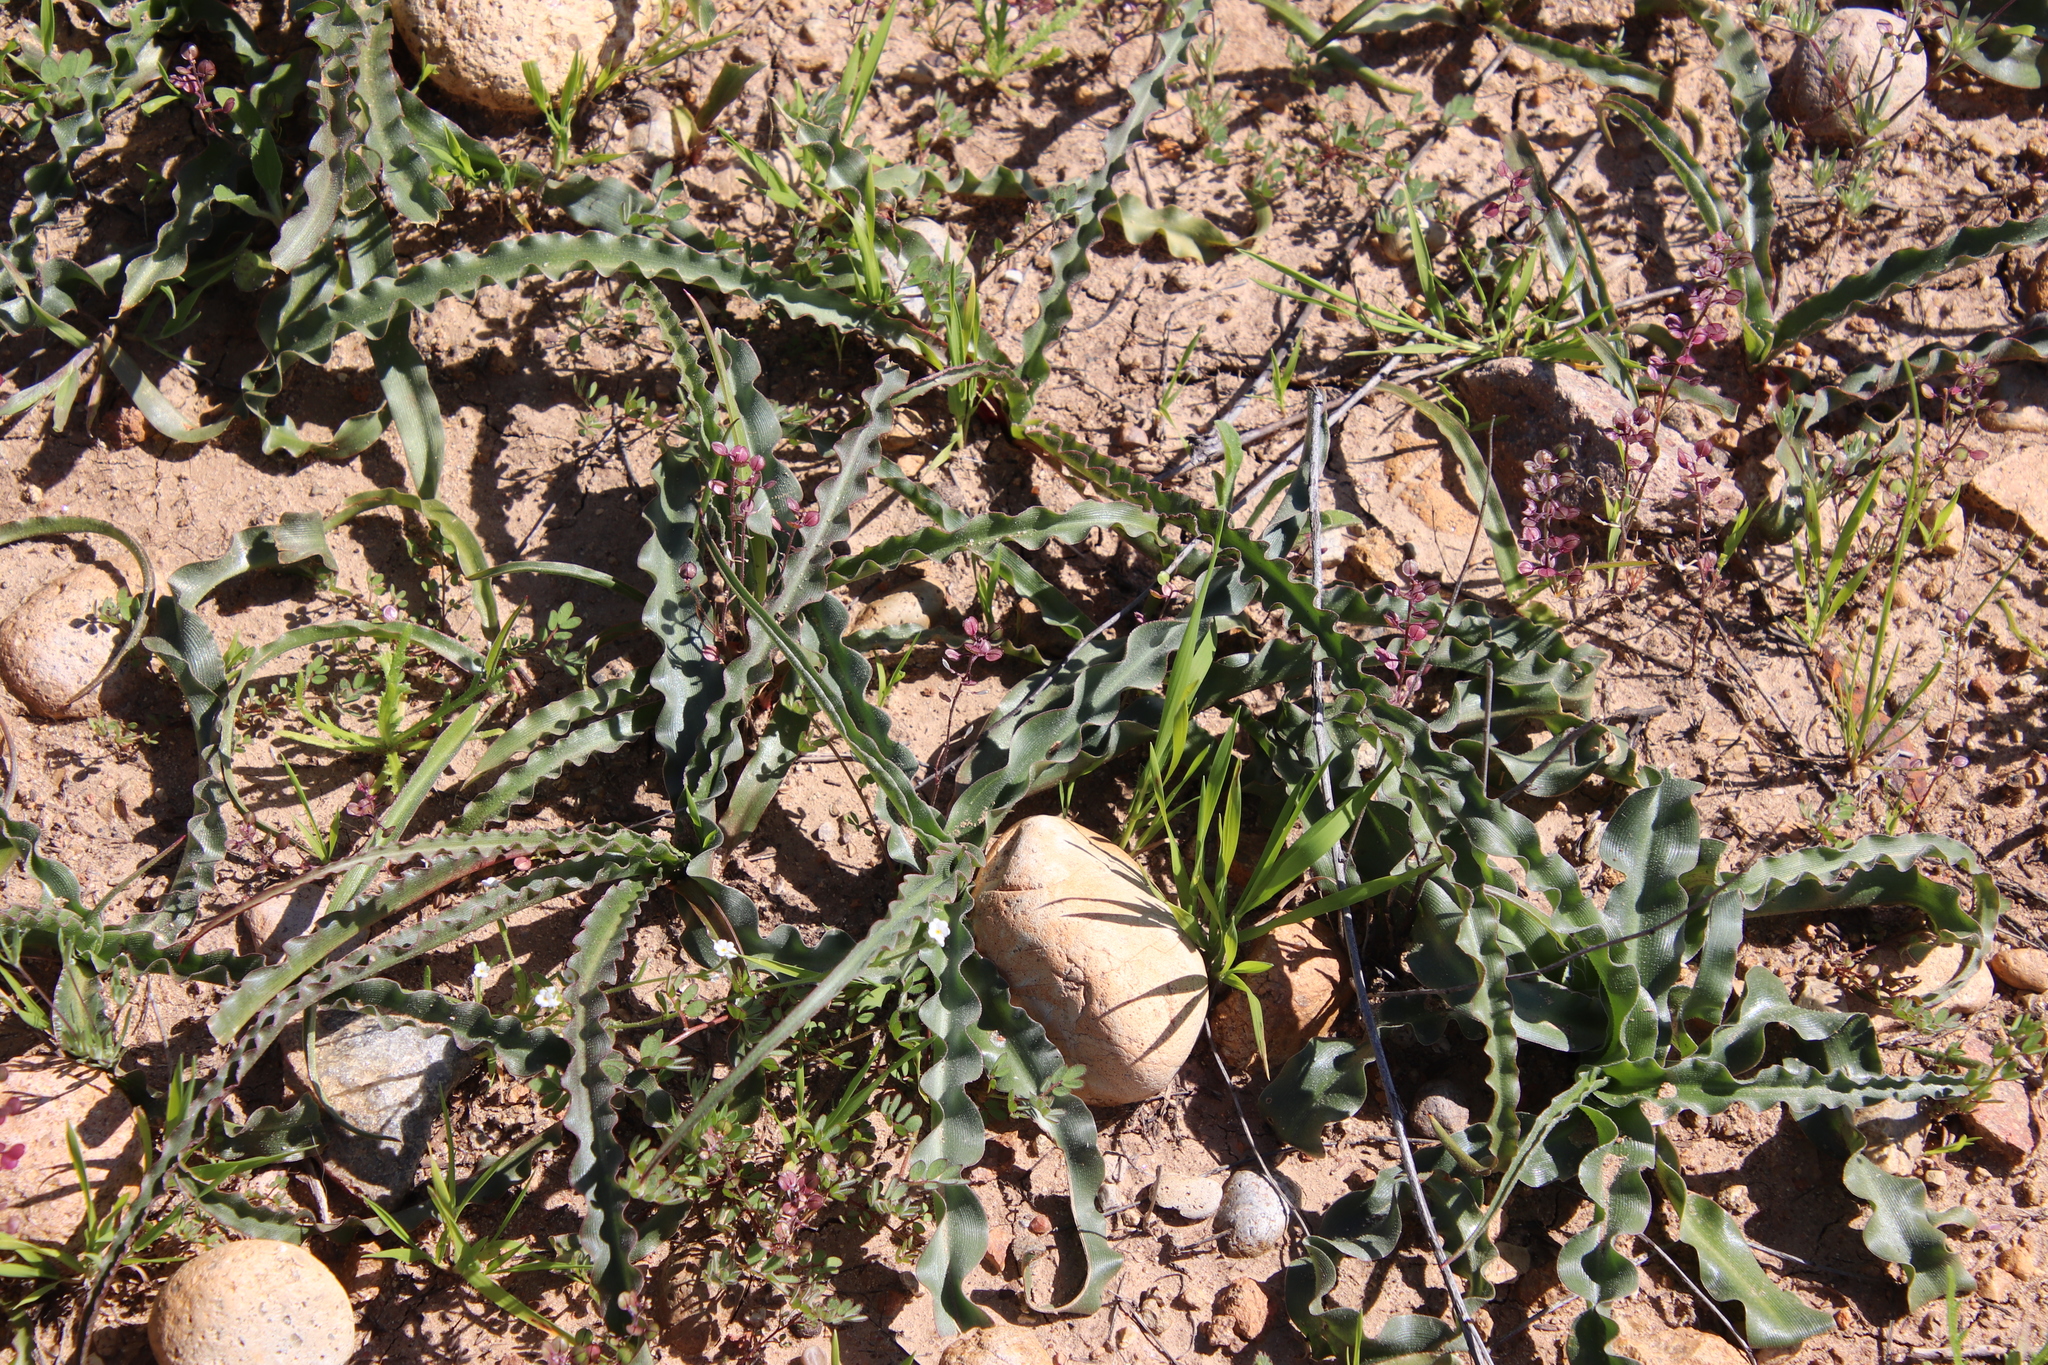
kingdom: Plantae
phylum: Tracheophyta
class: Liliopsida
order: Asparagales
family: Asparagaceae
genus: Hooveria
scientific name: Hooveria parviflora
